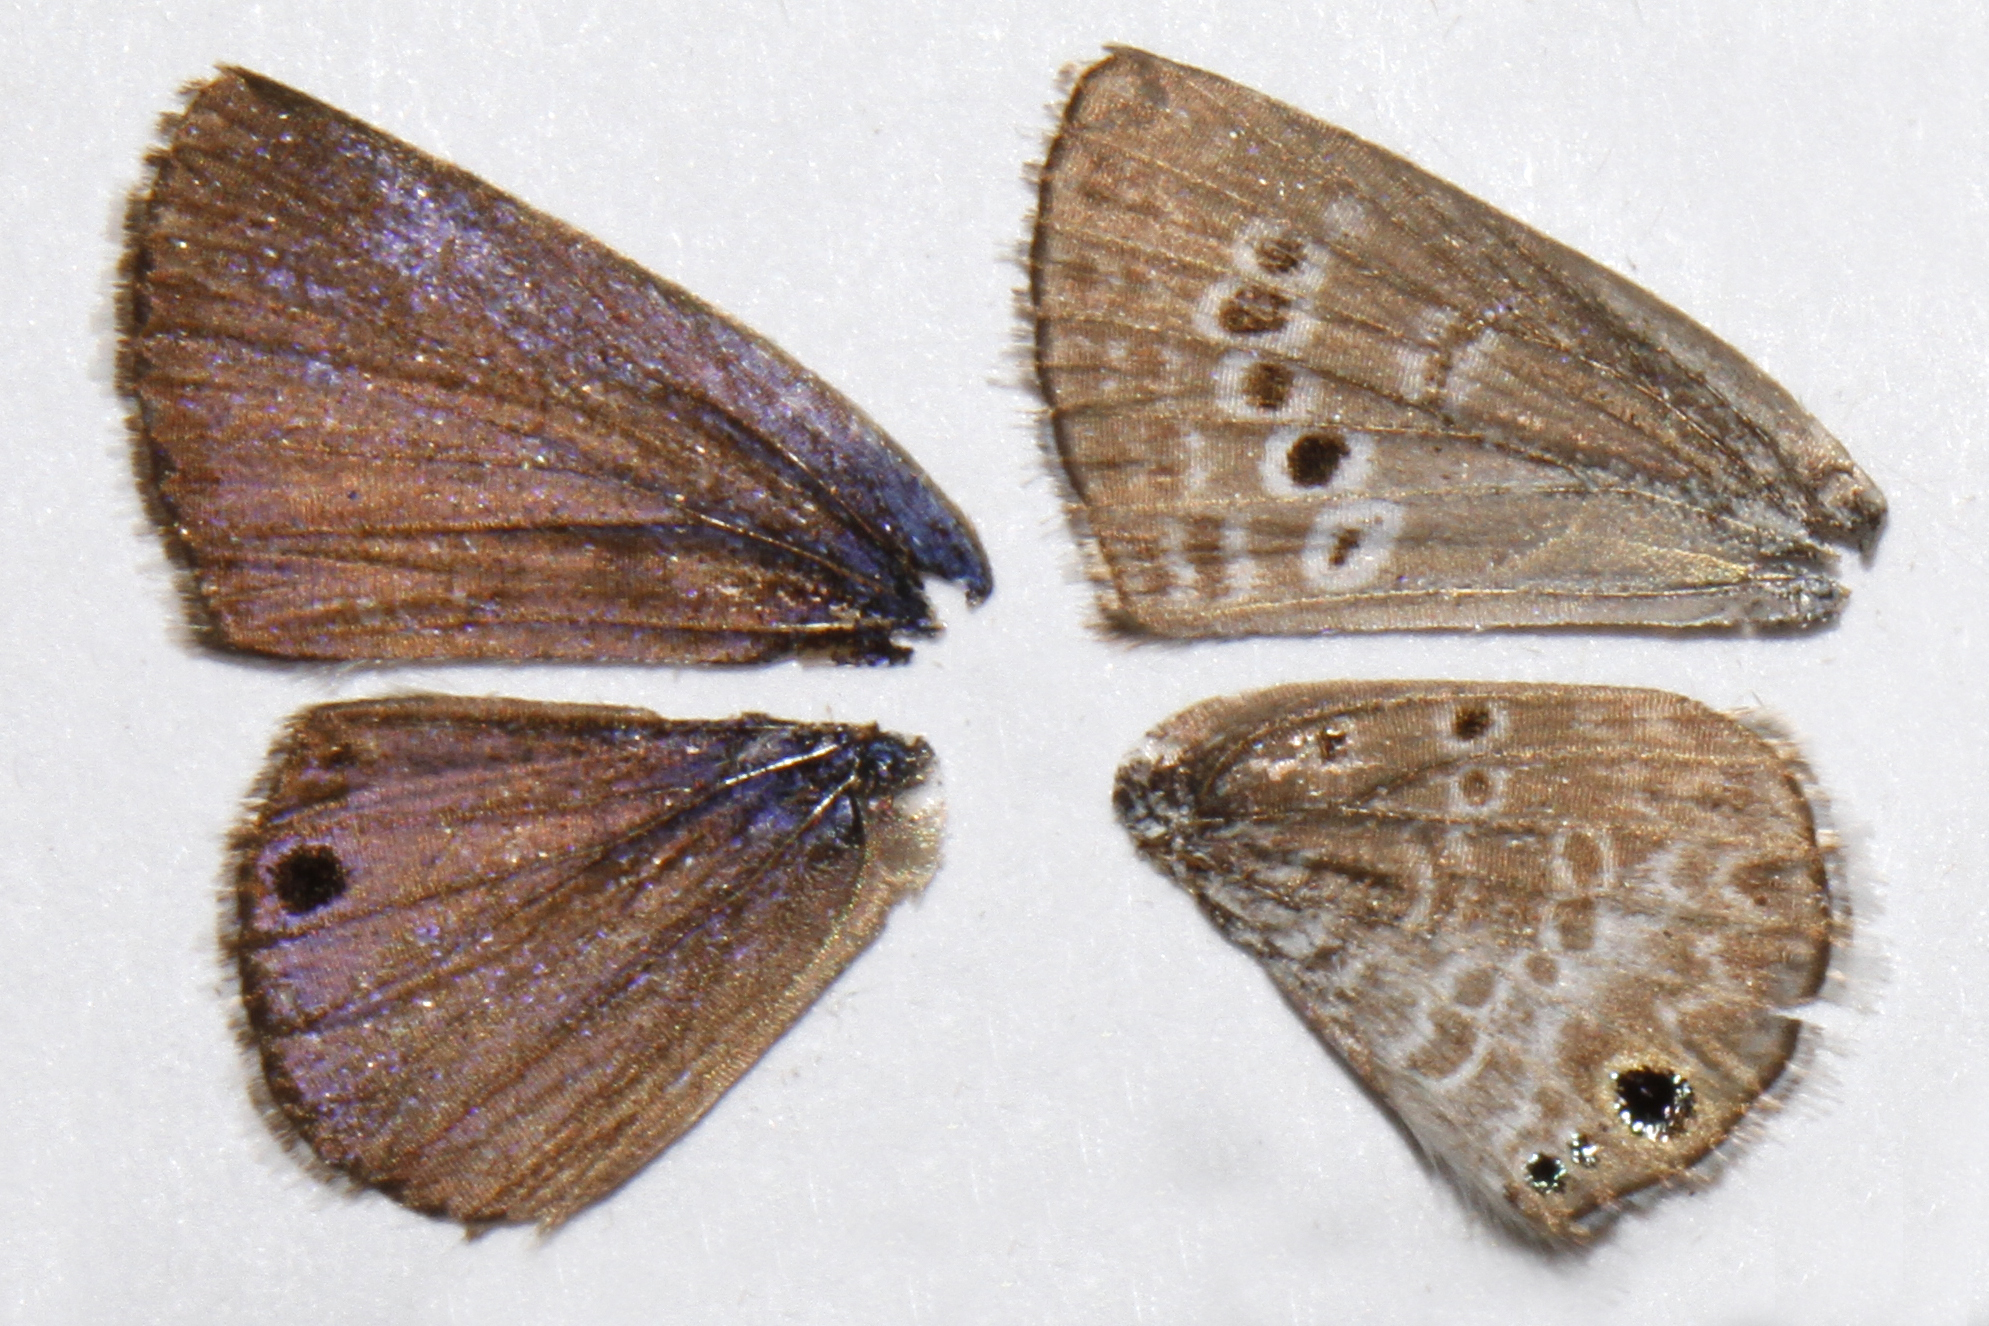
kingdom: Animalia
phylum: Arthropoda
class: Insecta
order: Lepidoptera
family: Lycaenidae
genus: Echinargus
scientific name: Echinargus isola
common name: Reakirt's blue
